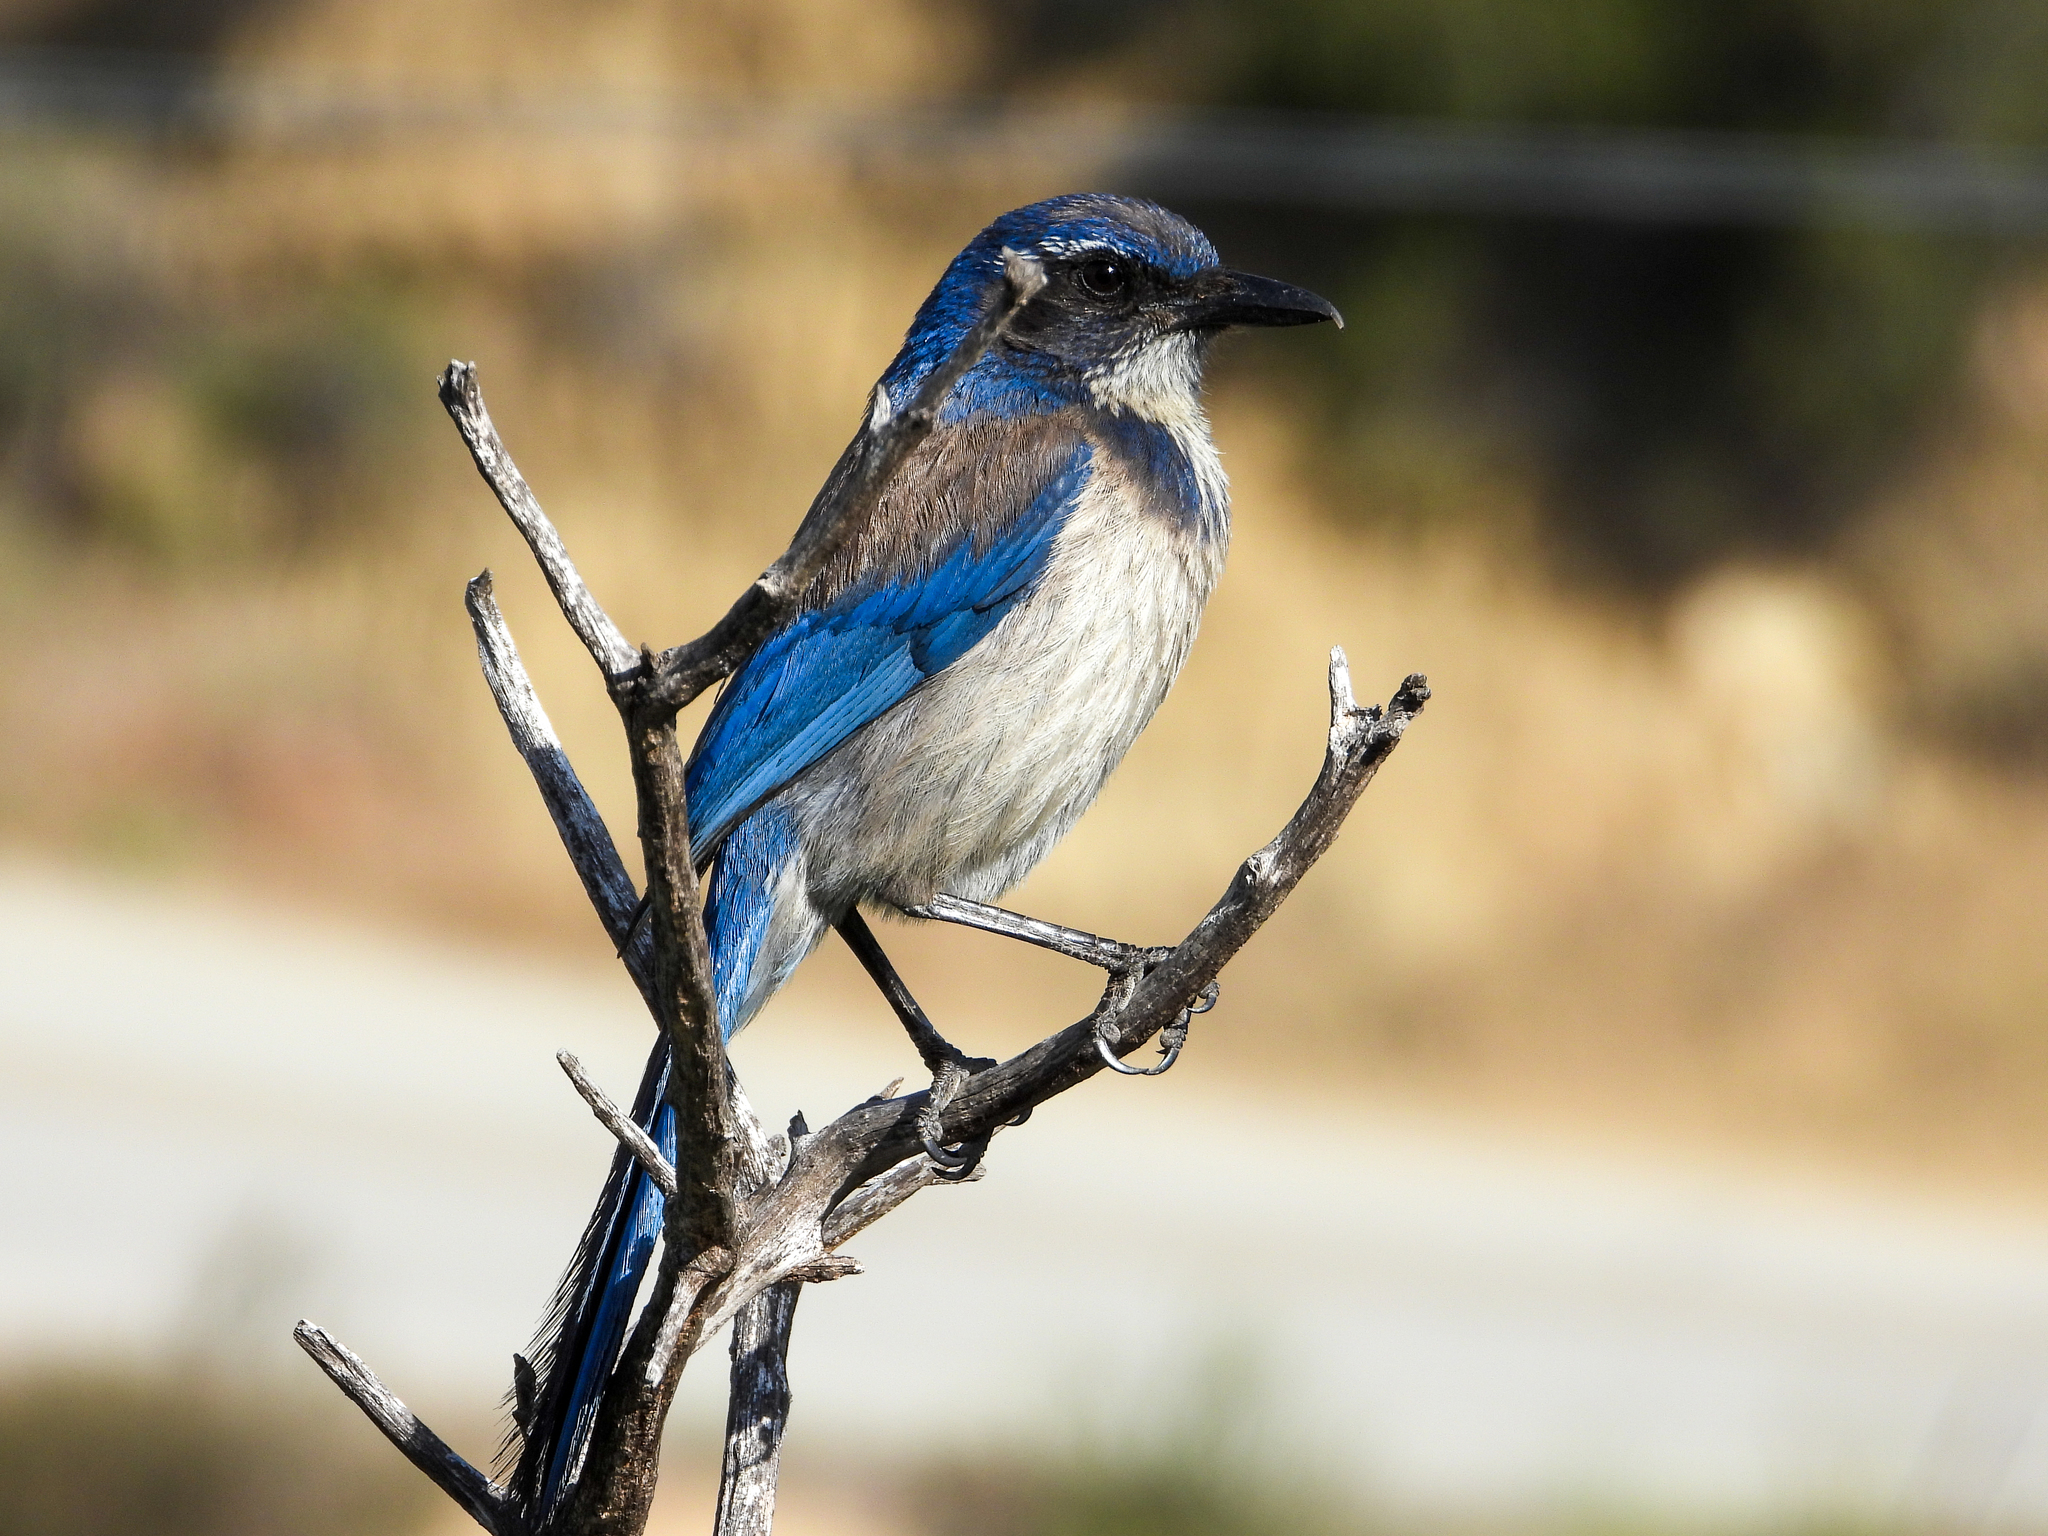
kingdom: Animalia
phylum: Chordata
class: Aves
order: Passeriformes
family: Corvidae
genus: Aphelocoma
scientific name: Aphelocoma californica
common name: California scrub-jay
